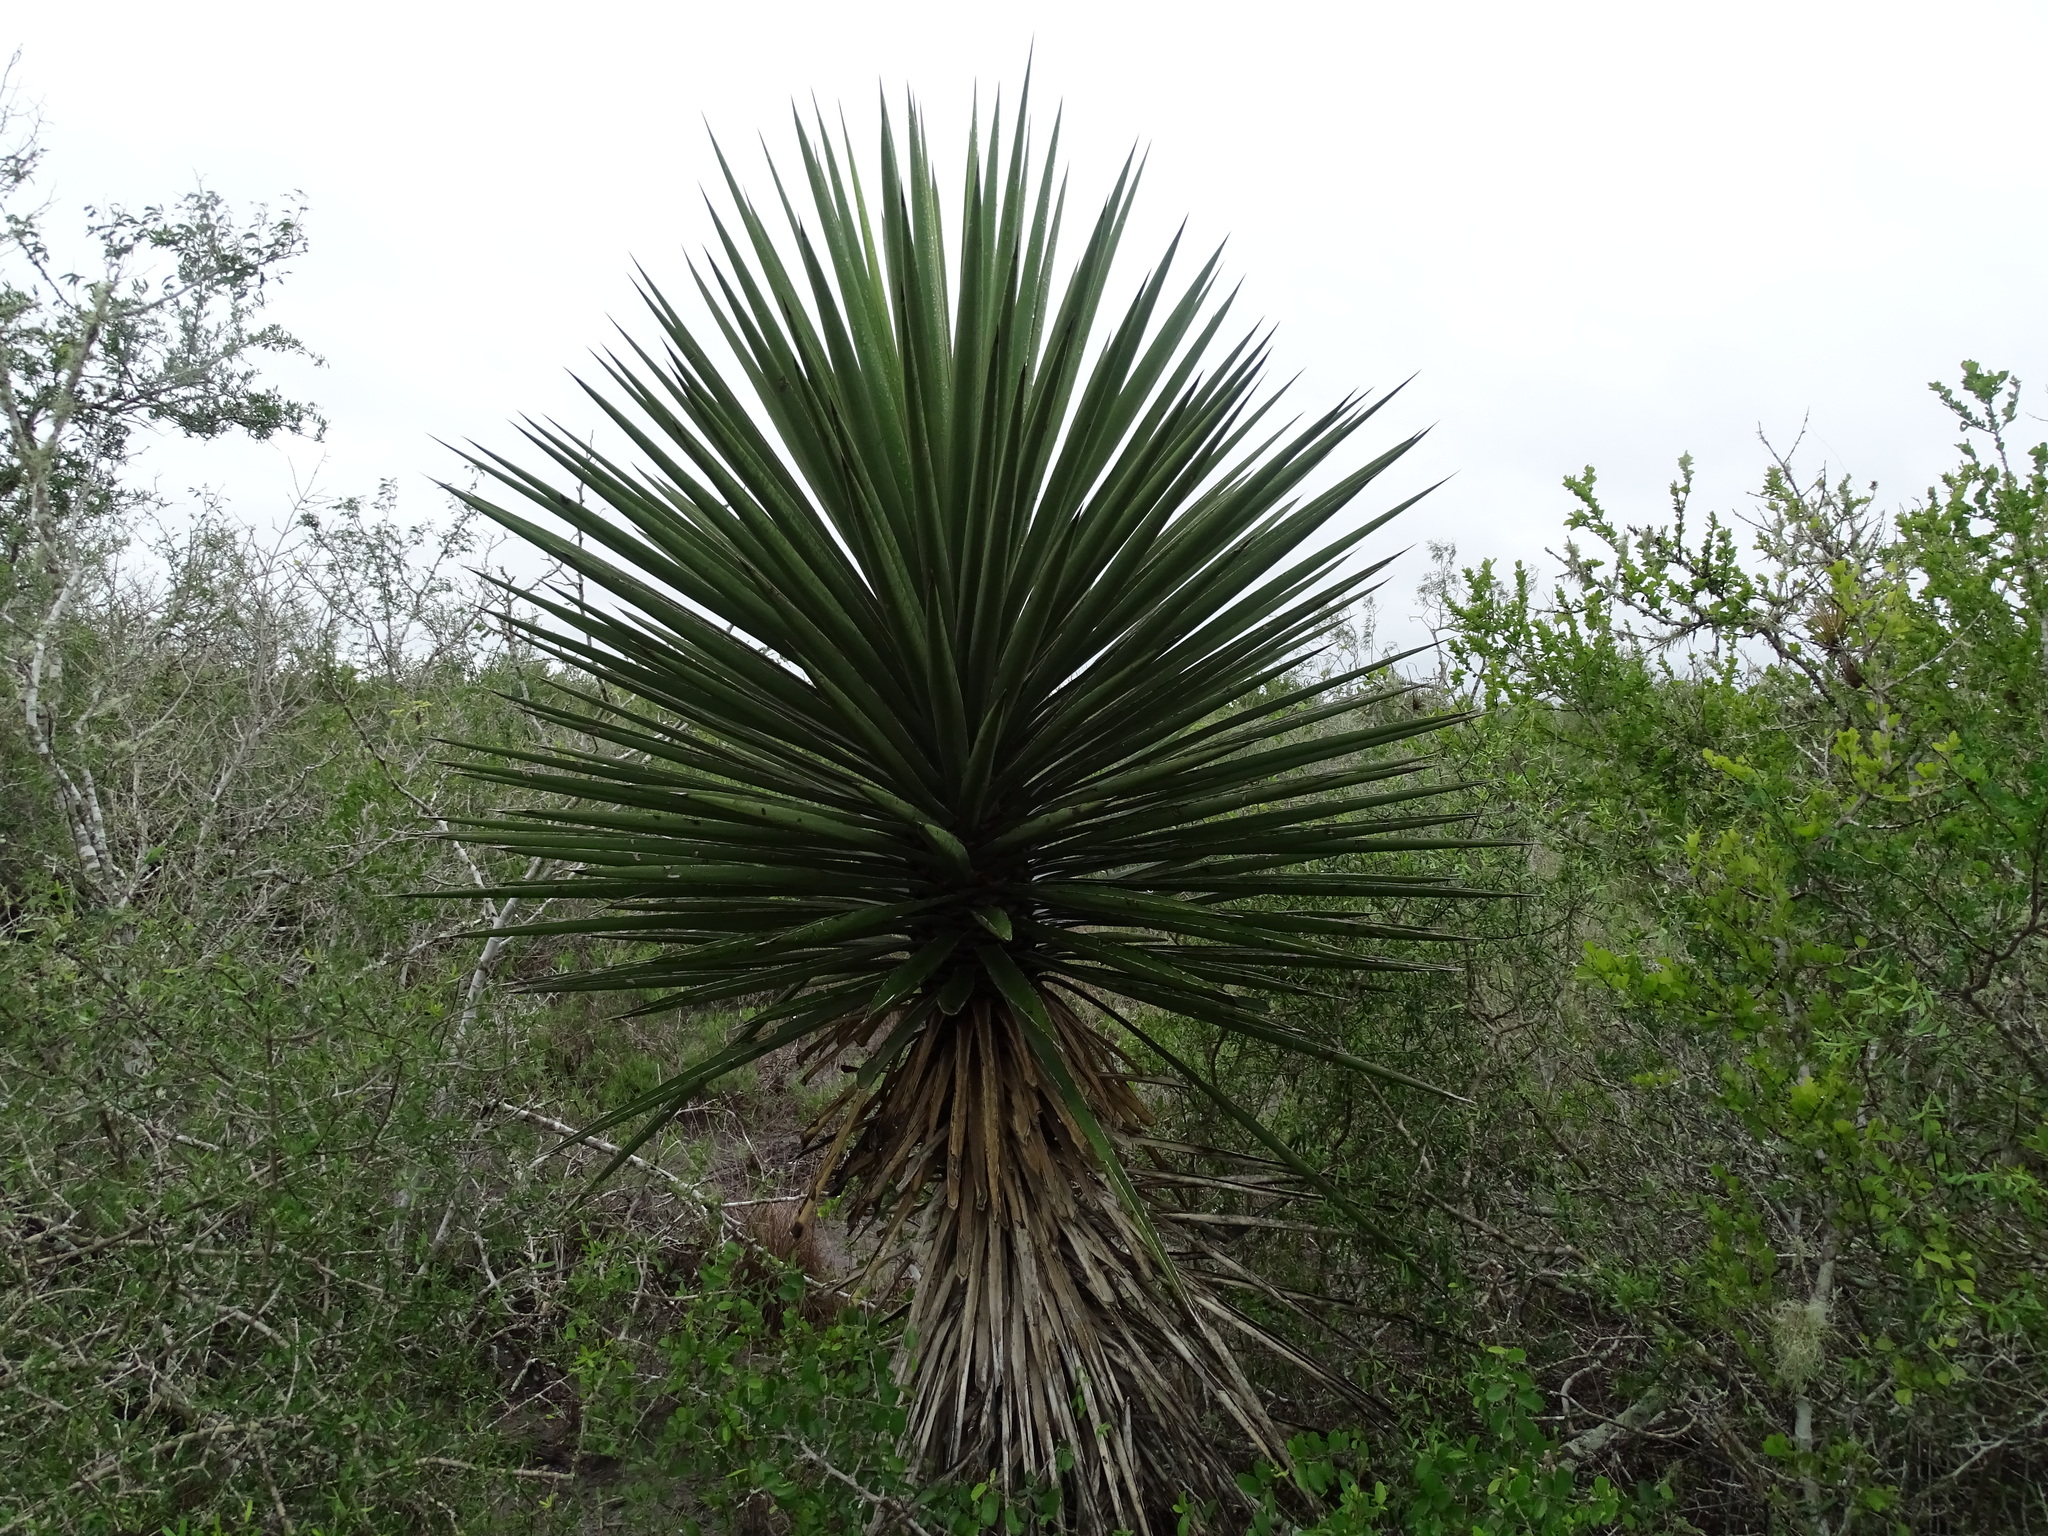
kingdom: Plantae
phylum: Tracheophyta
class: Liliopsida
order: Asparagales
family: Asparagaceae
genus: Yucca
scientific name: Yucca treculiana
